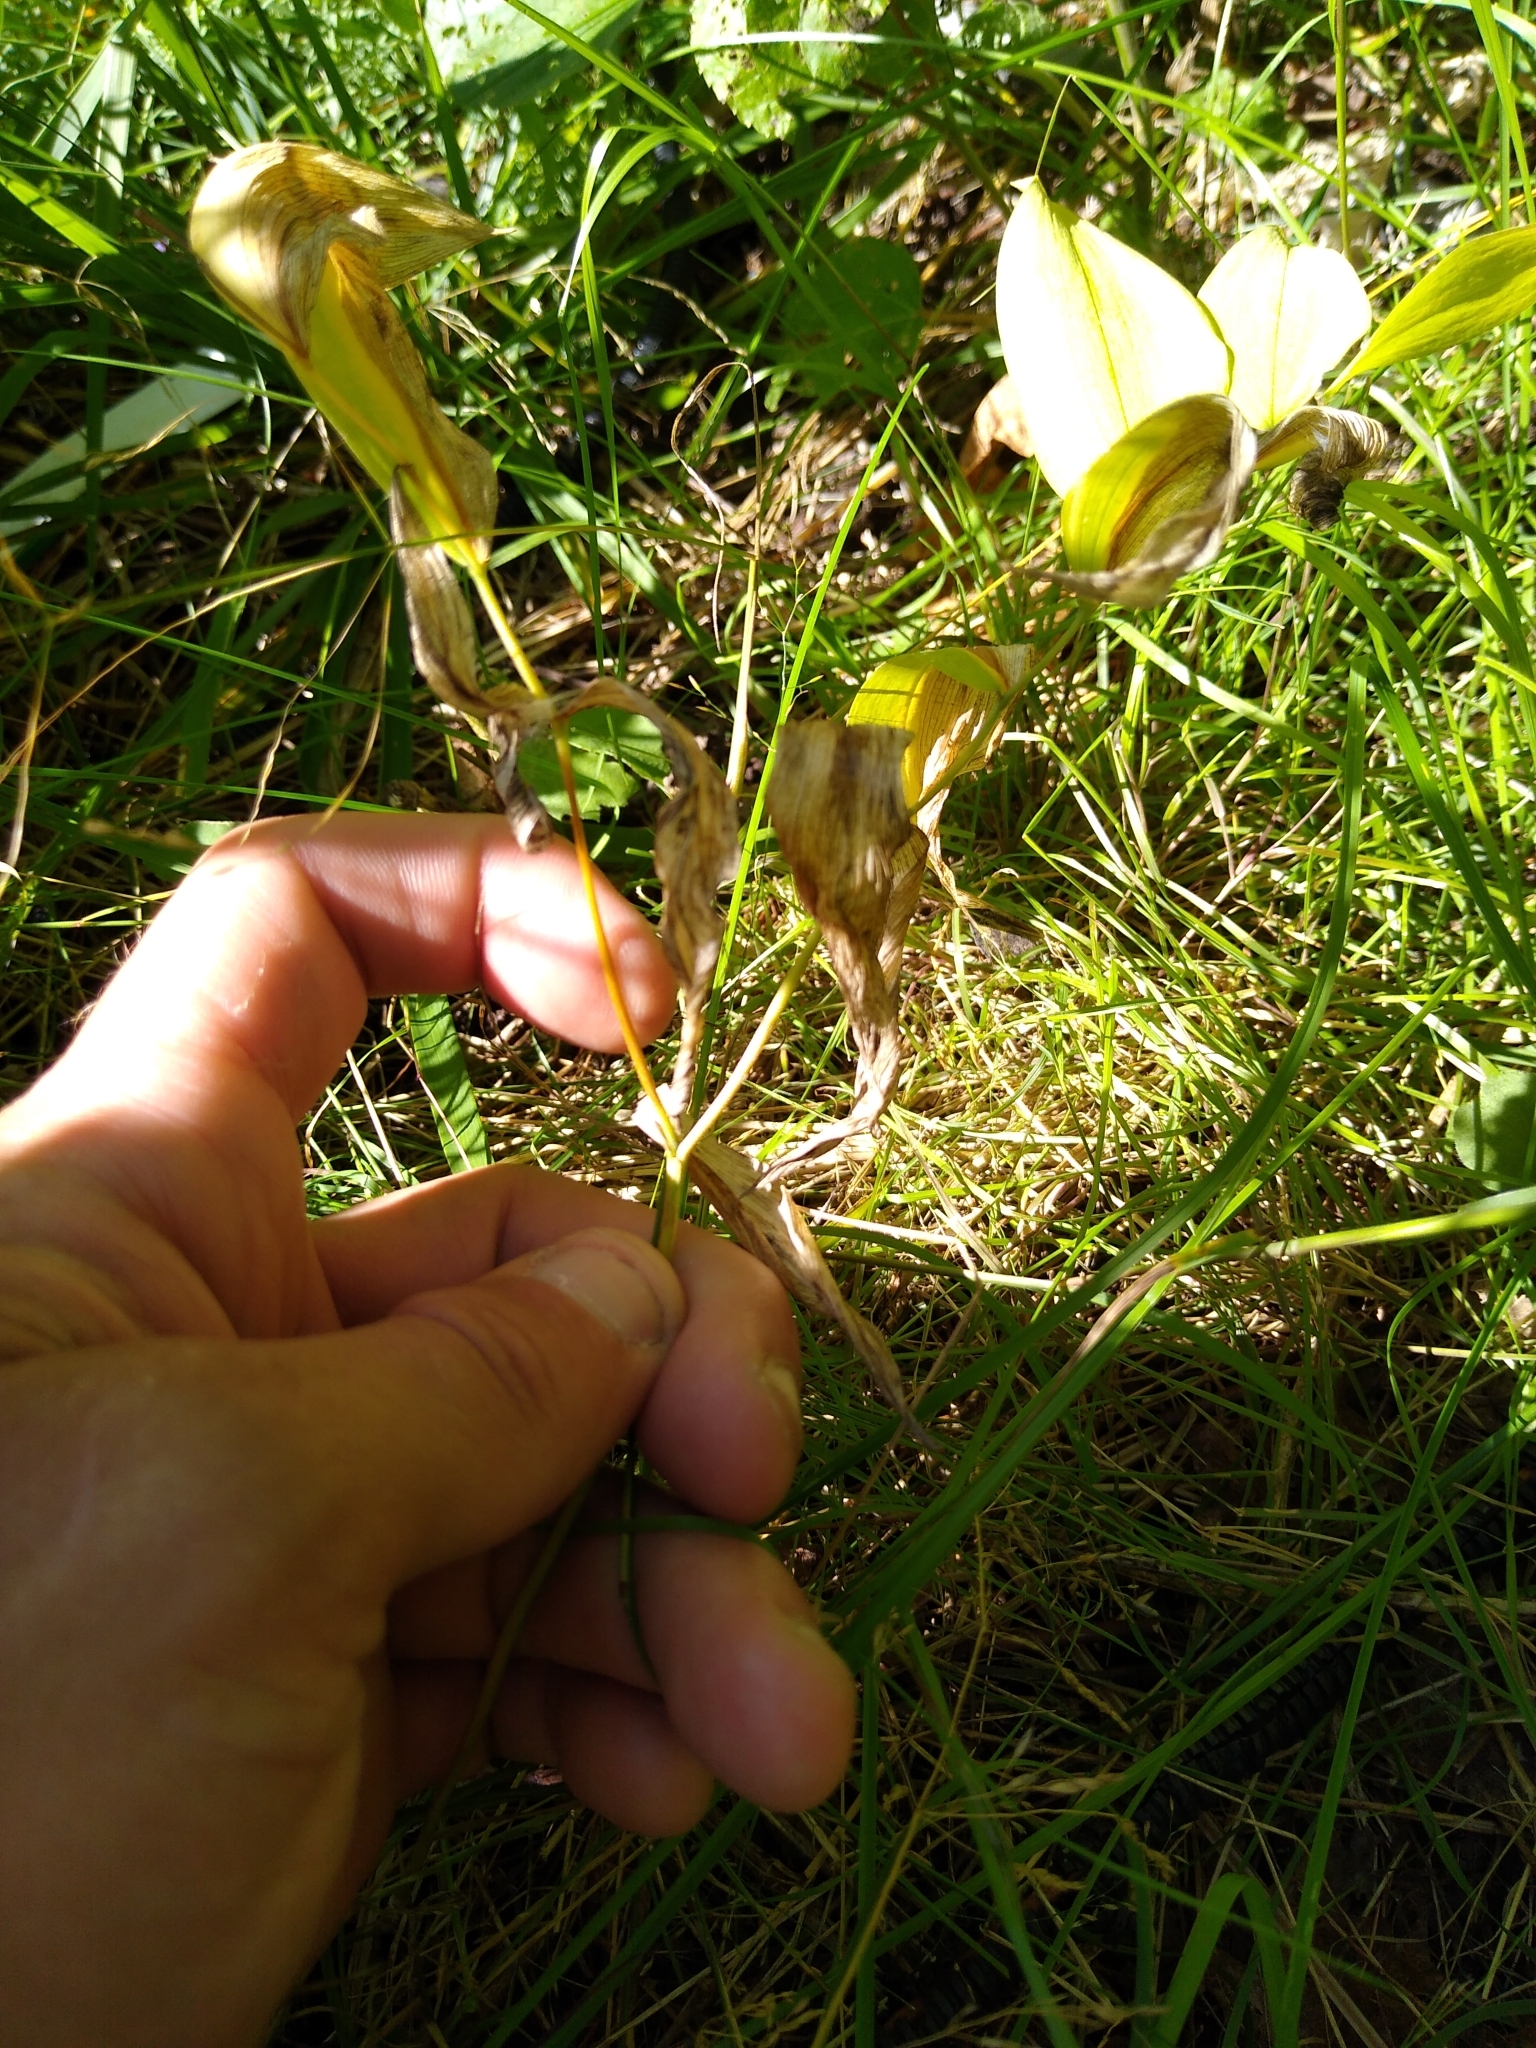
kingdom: Plantae
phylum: Tracheophyta
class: Liliopsida
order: Liliales
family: Colchicaceae
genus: Uvularia
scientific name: Uvularia sessilifolia
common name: Straw-lily
